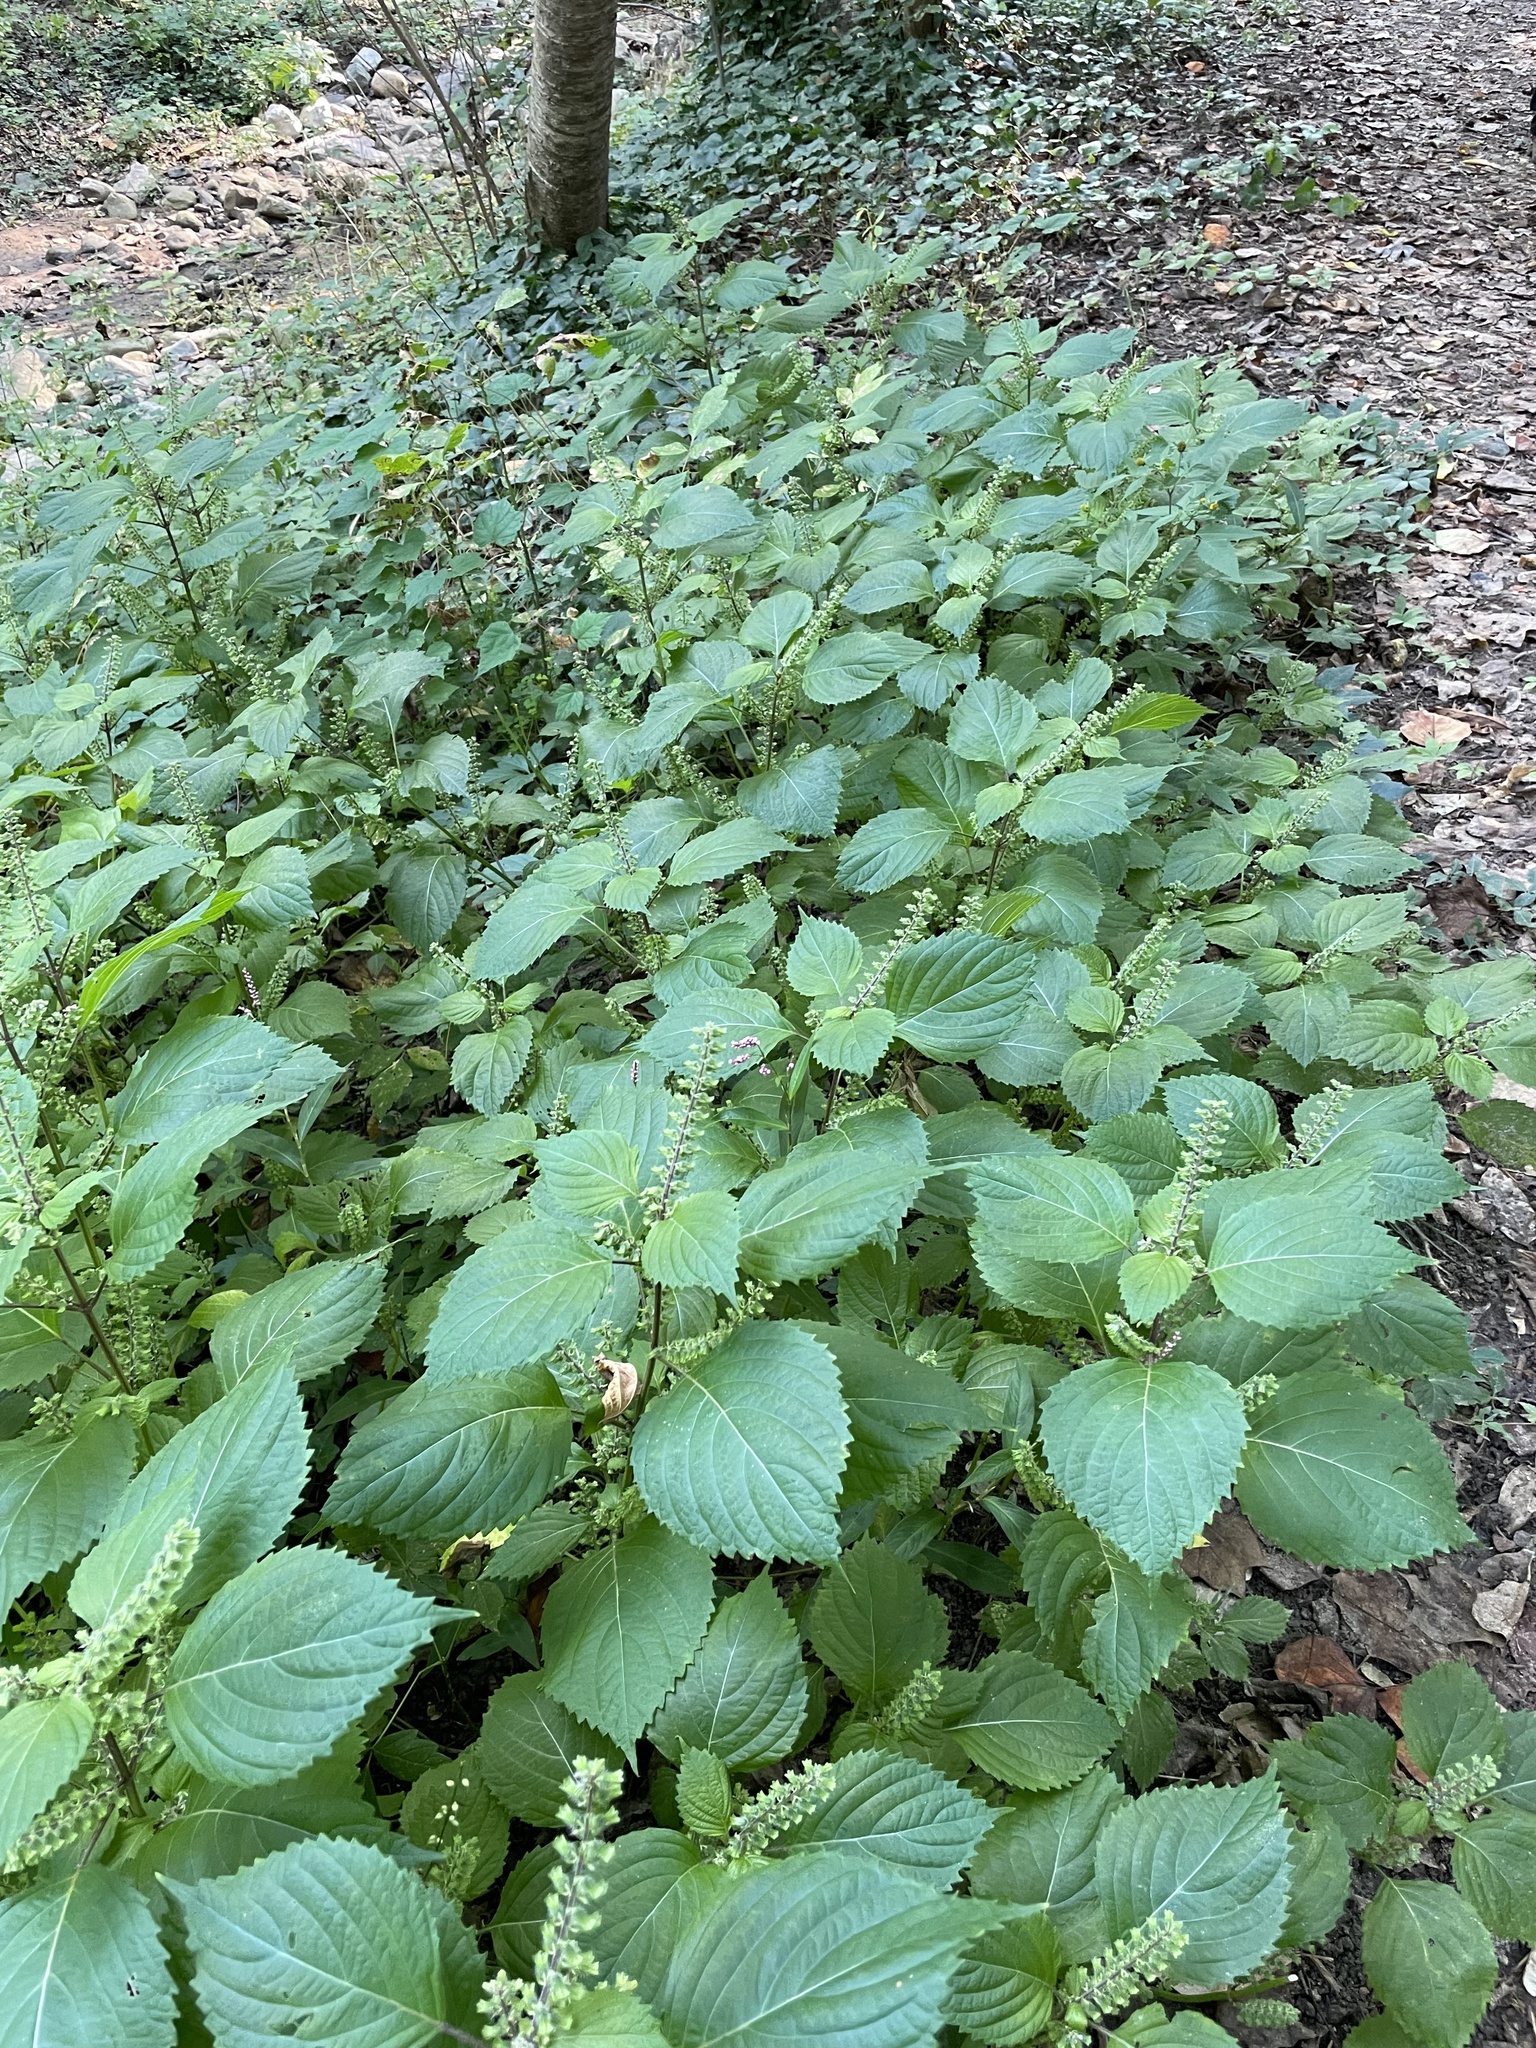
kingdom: Plantae
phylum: Tracheophyta
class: Magnoliopsida
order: Lamiales
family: Lamiaceae
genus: Perilla
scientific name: Perilla frutescens
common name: Perilla
